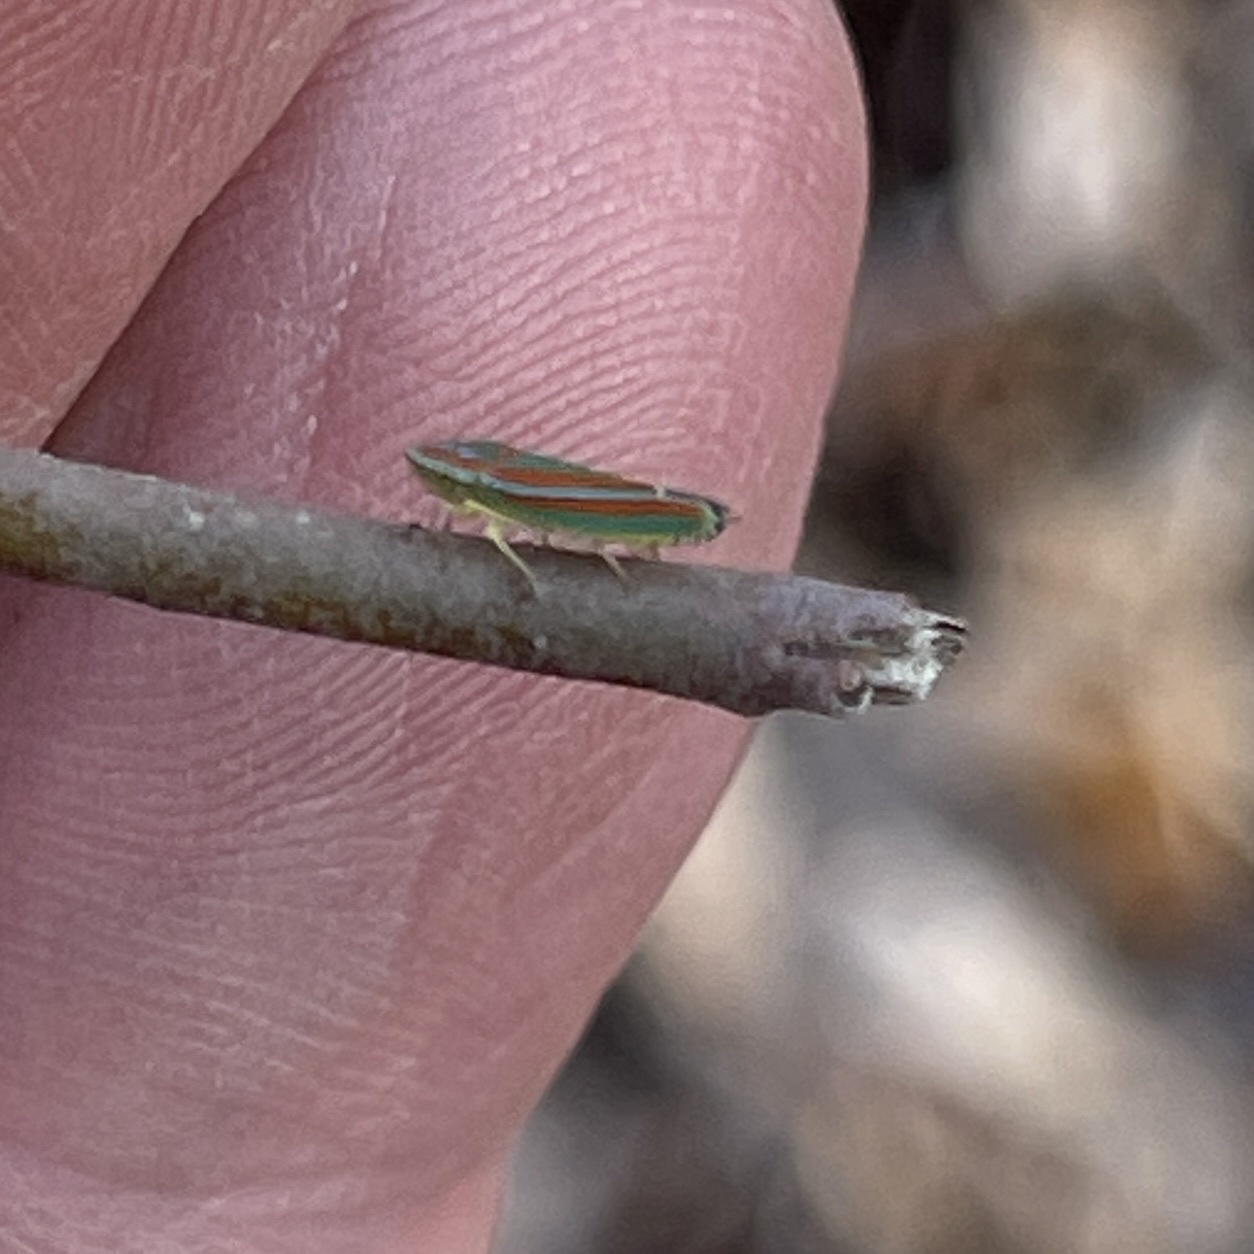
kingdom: Animalia
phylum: Arthropoda
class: Insecta
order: Hemiptera
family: Cicadellidae
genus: Graphocephala
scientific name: Graphocephala versuta
